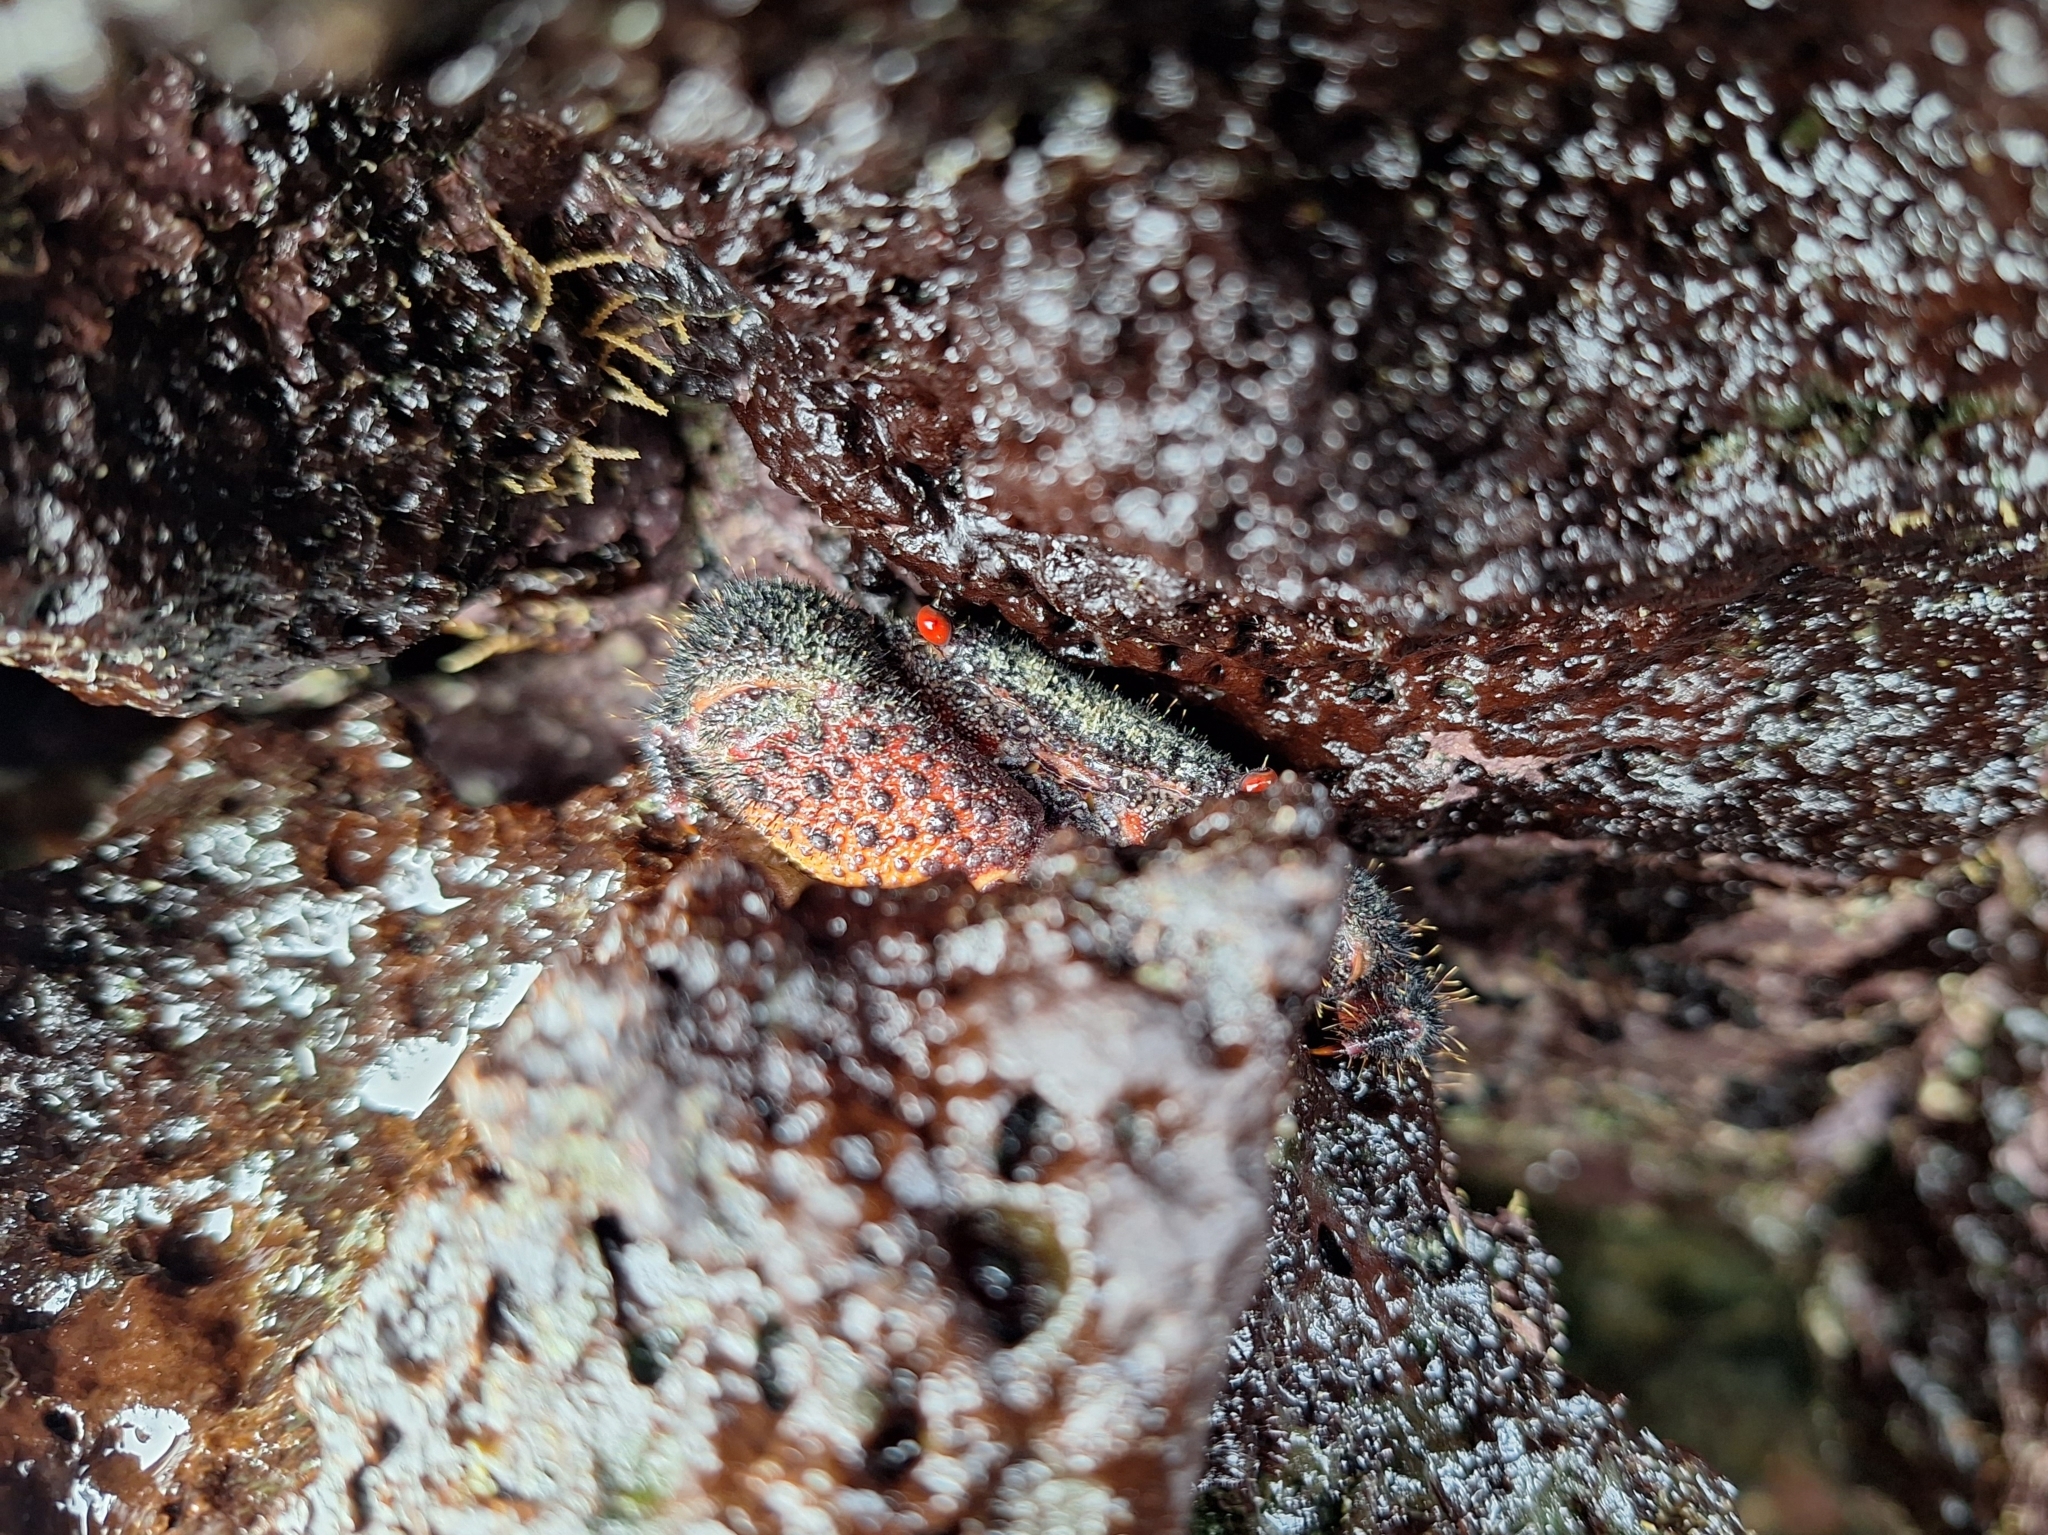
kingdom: Animalia
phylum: Arthropoda
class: Malacostraca
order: Decapoda
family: Eriphiidae
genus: Eriphides
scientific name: Eriphides hispida
